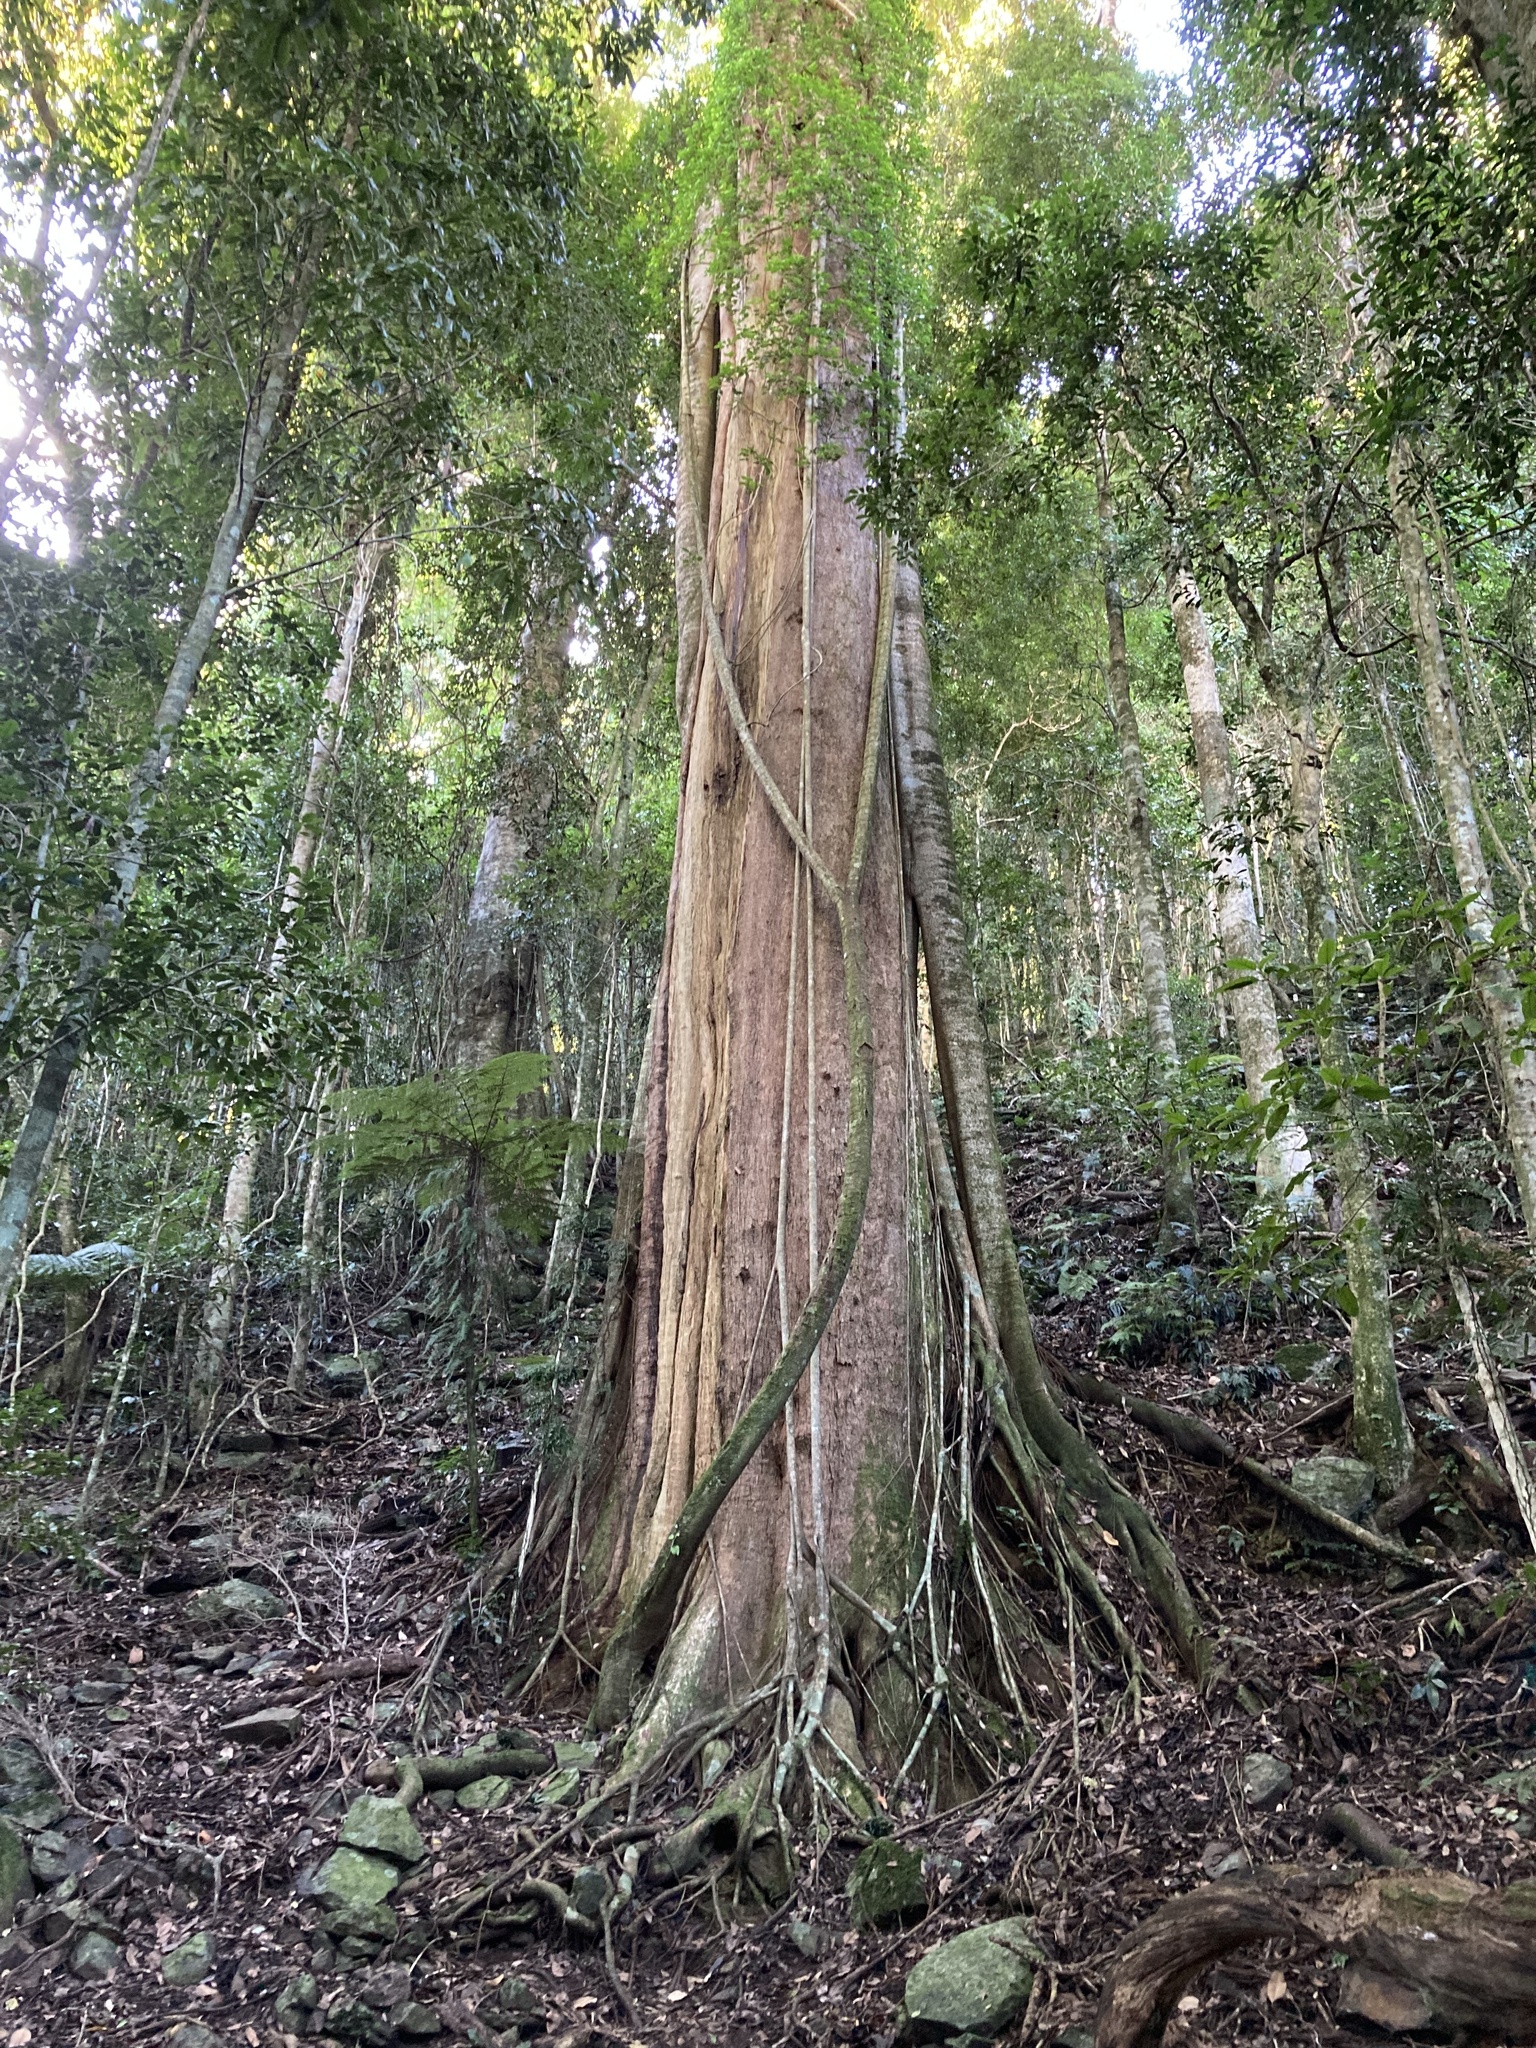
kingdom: Plantae
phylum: Tracheophyta
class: Magnoliopsida
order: Myrtales
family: Myrtaceae
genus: Lophostemon
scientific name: Lophostemon confertus
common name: Brisbane box
